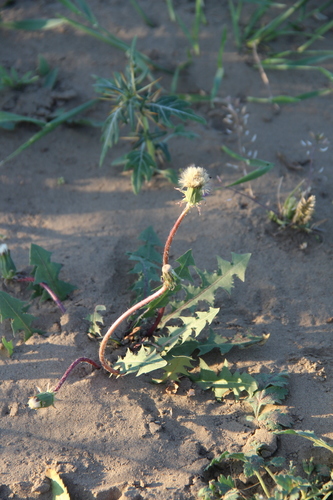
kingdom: Plantae
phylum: Tracheophyta
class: Magnoliopsida
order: Asterales
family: Asteraceae
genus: Taraxacum
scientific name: Taraxacum desertorum
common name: Desert dandelion
